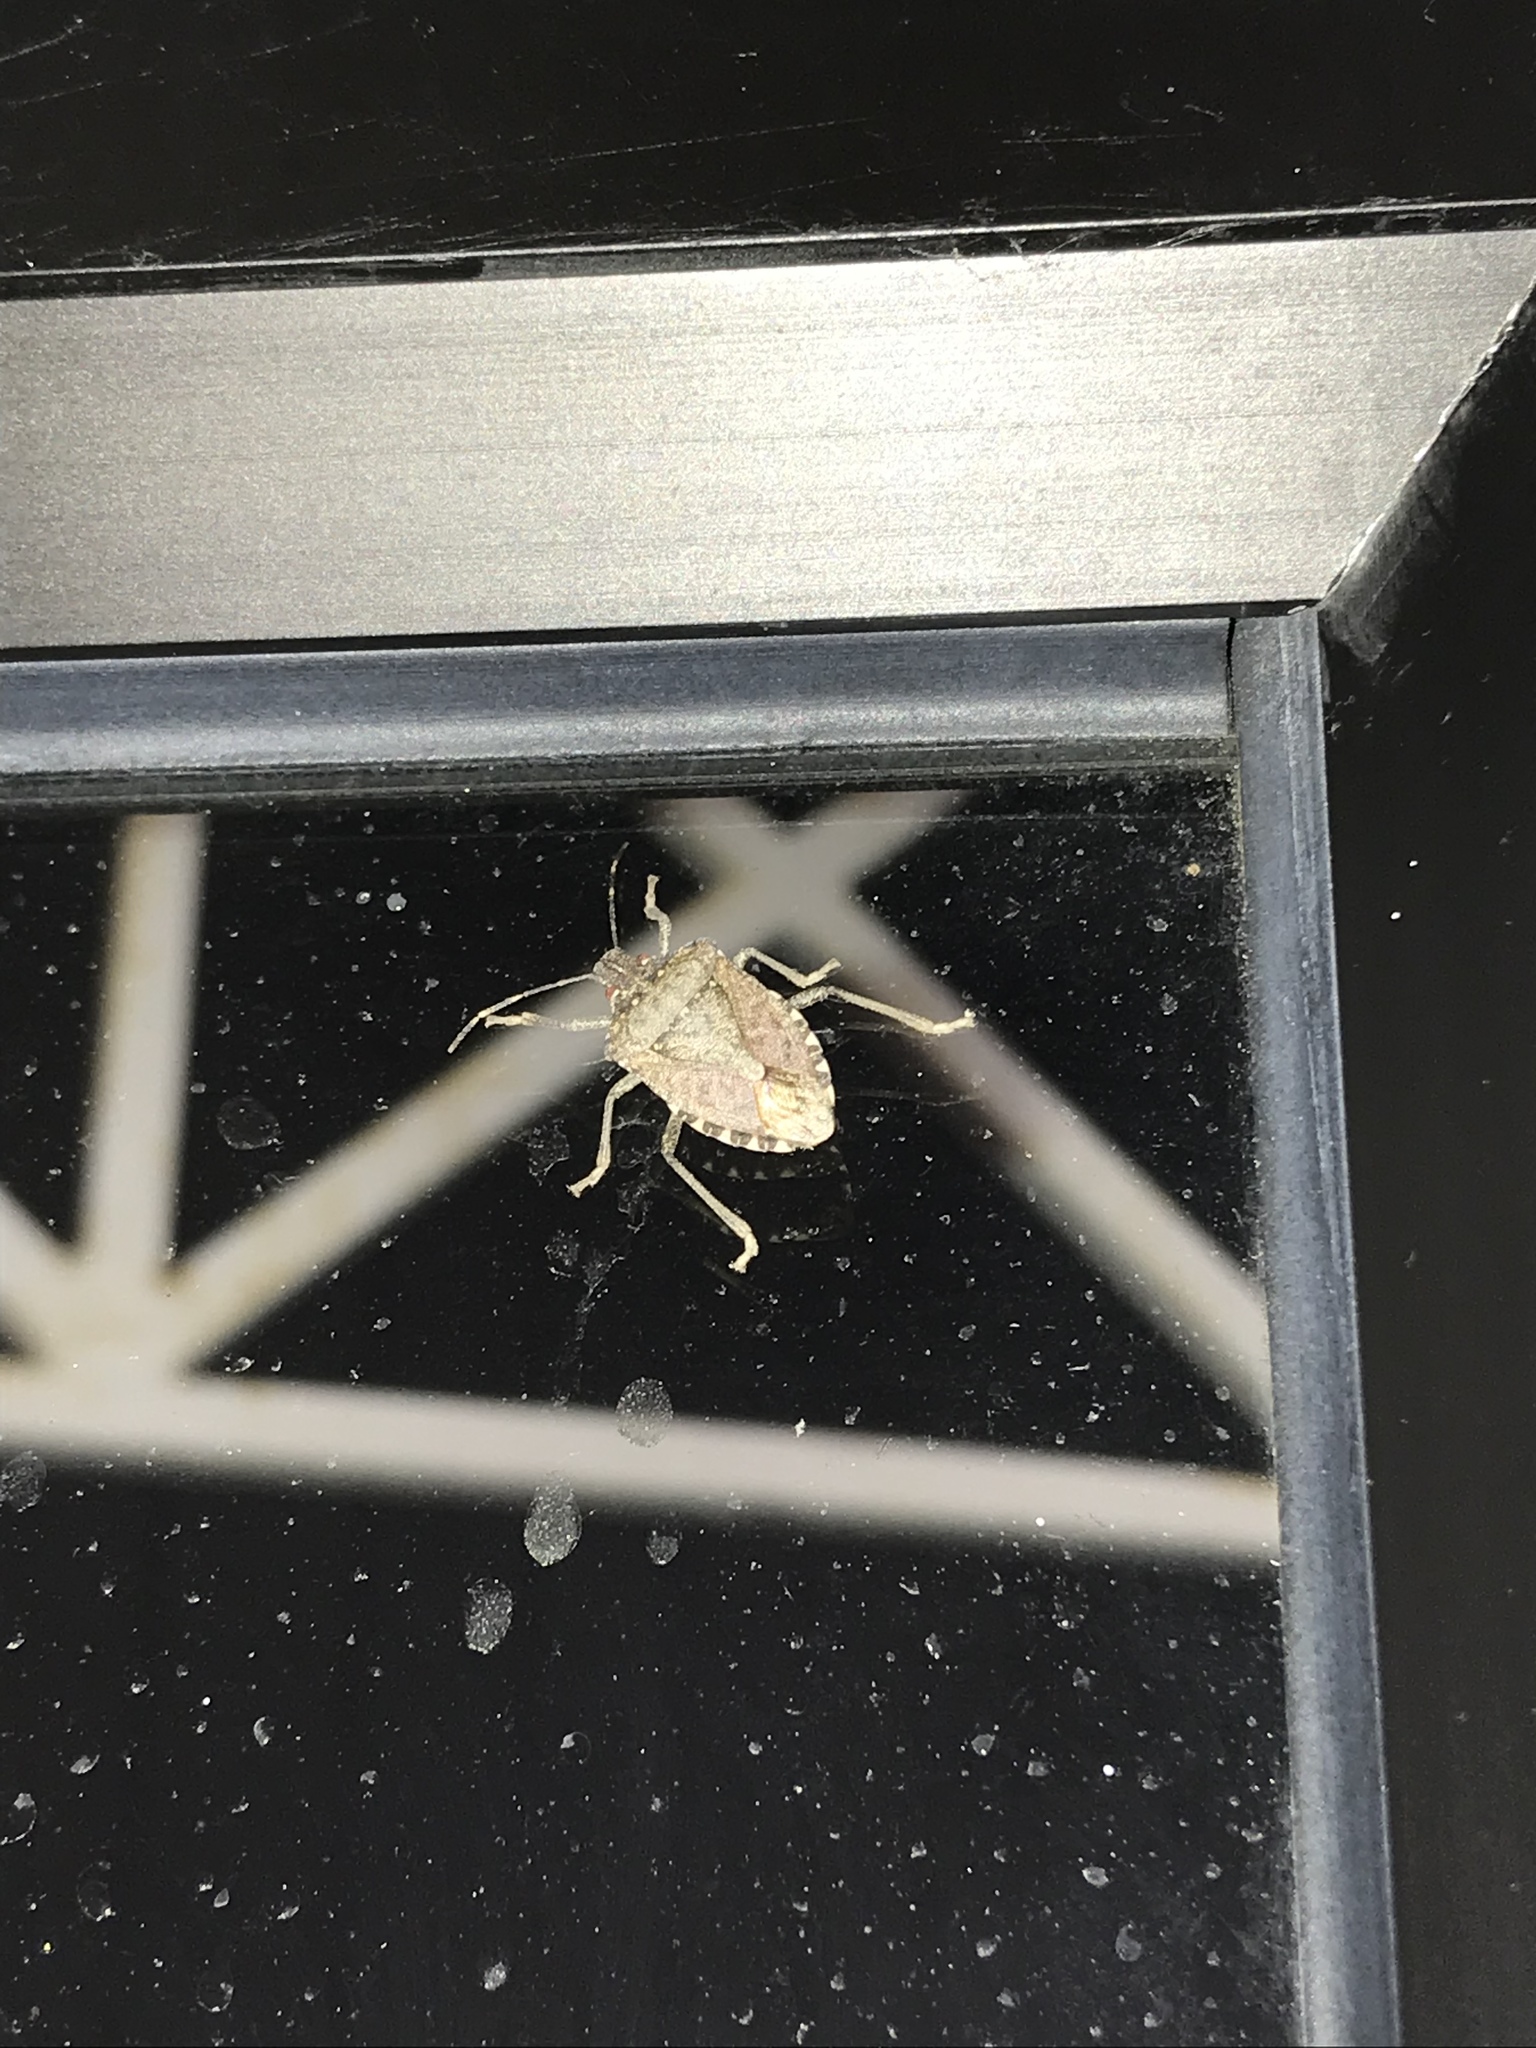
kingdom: Animalia
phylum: Arthropoda
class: Insecta
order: Hemiptera
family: Pentatomidae
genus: Halyomorpha
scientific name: Halyomorpha halys
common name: Brown marmorated stink bug
